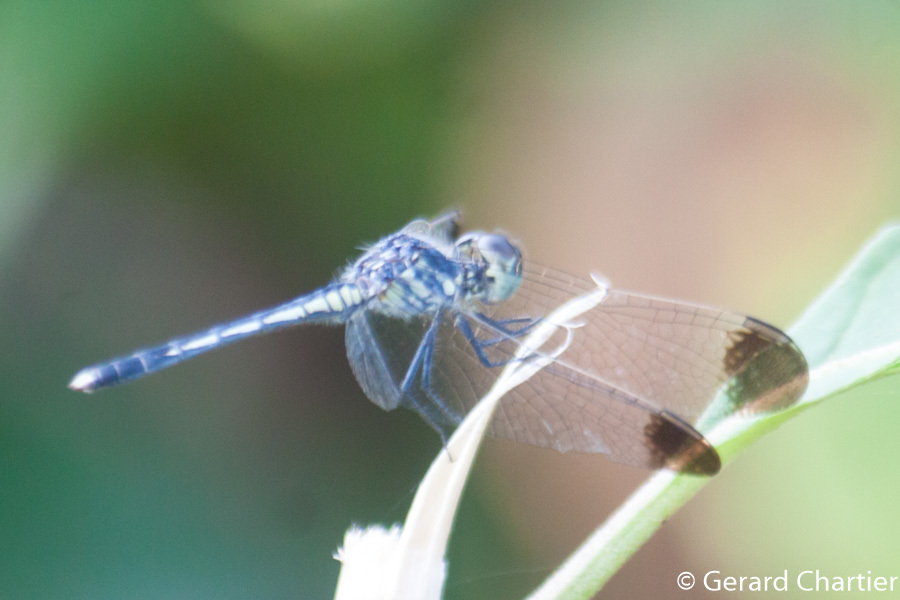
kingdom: Animalia
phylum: Arthropoda
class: Insecta
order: Odonata
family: Libellulidae
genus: Diplacodes
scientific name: Diplacodes nebulosa
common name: Black-tipped percher
